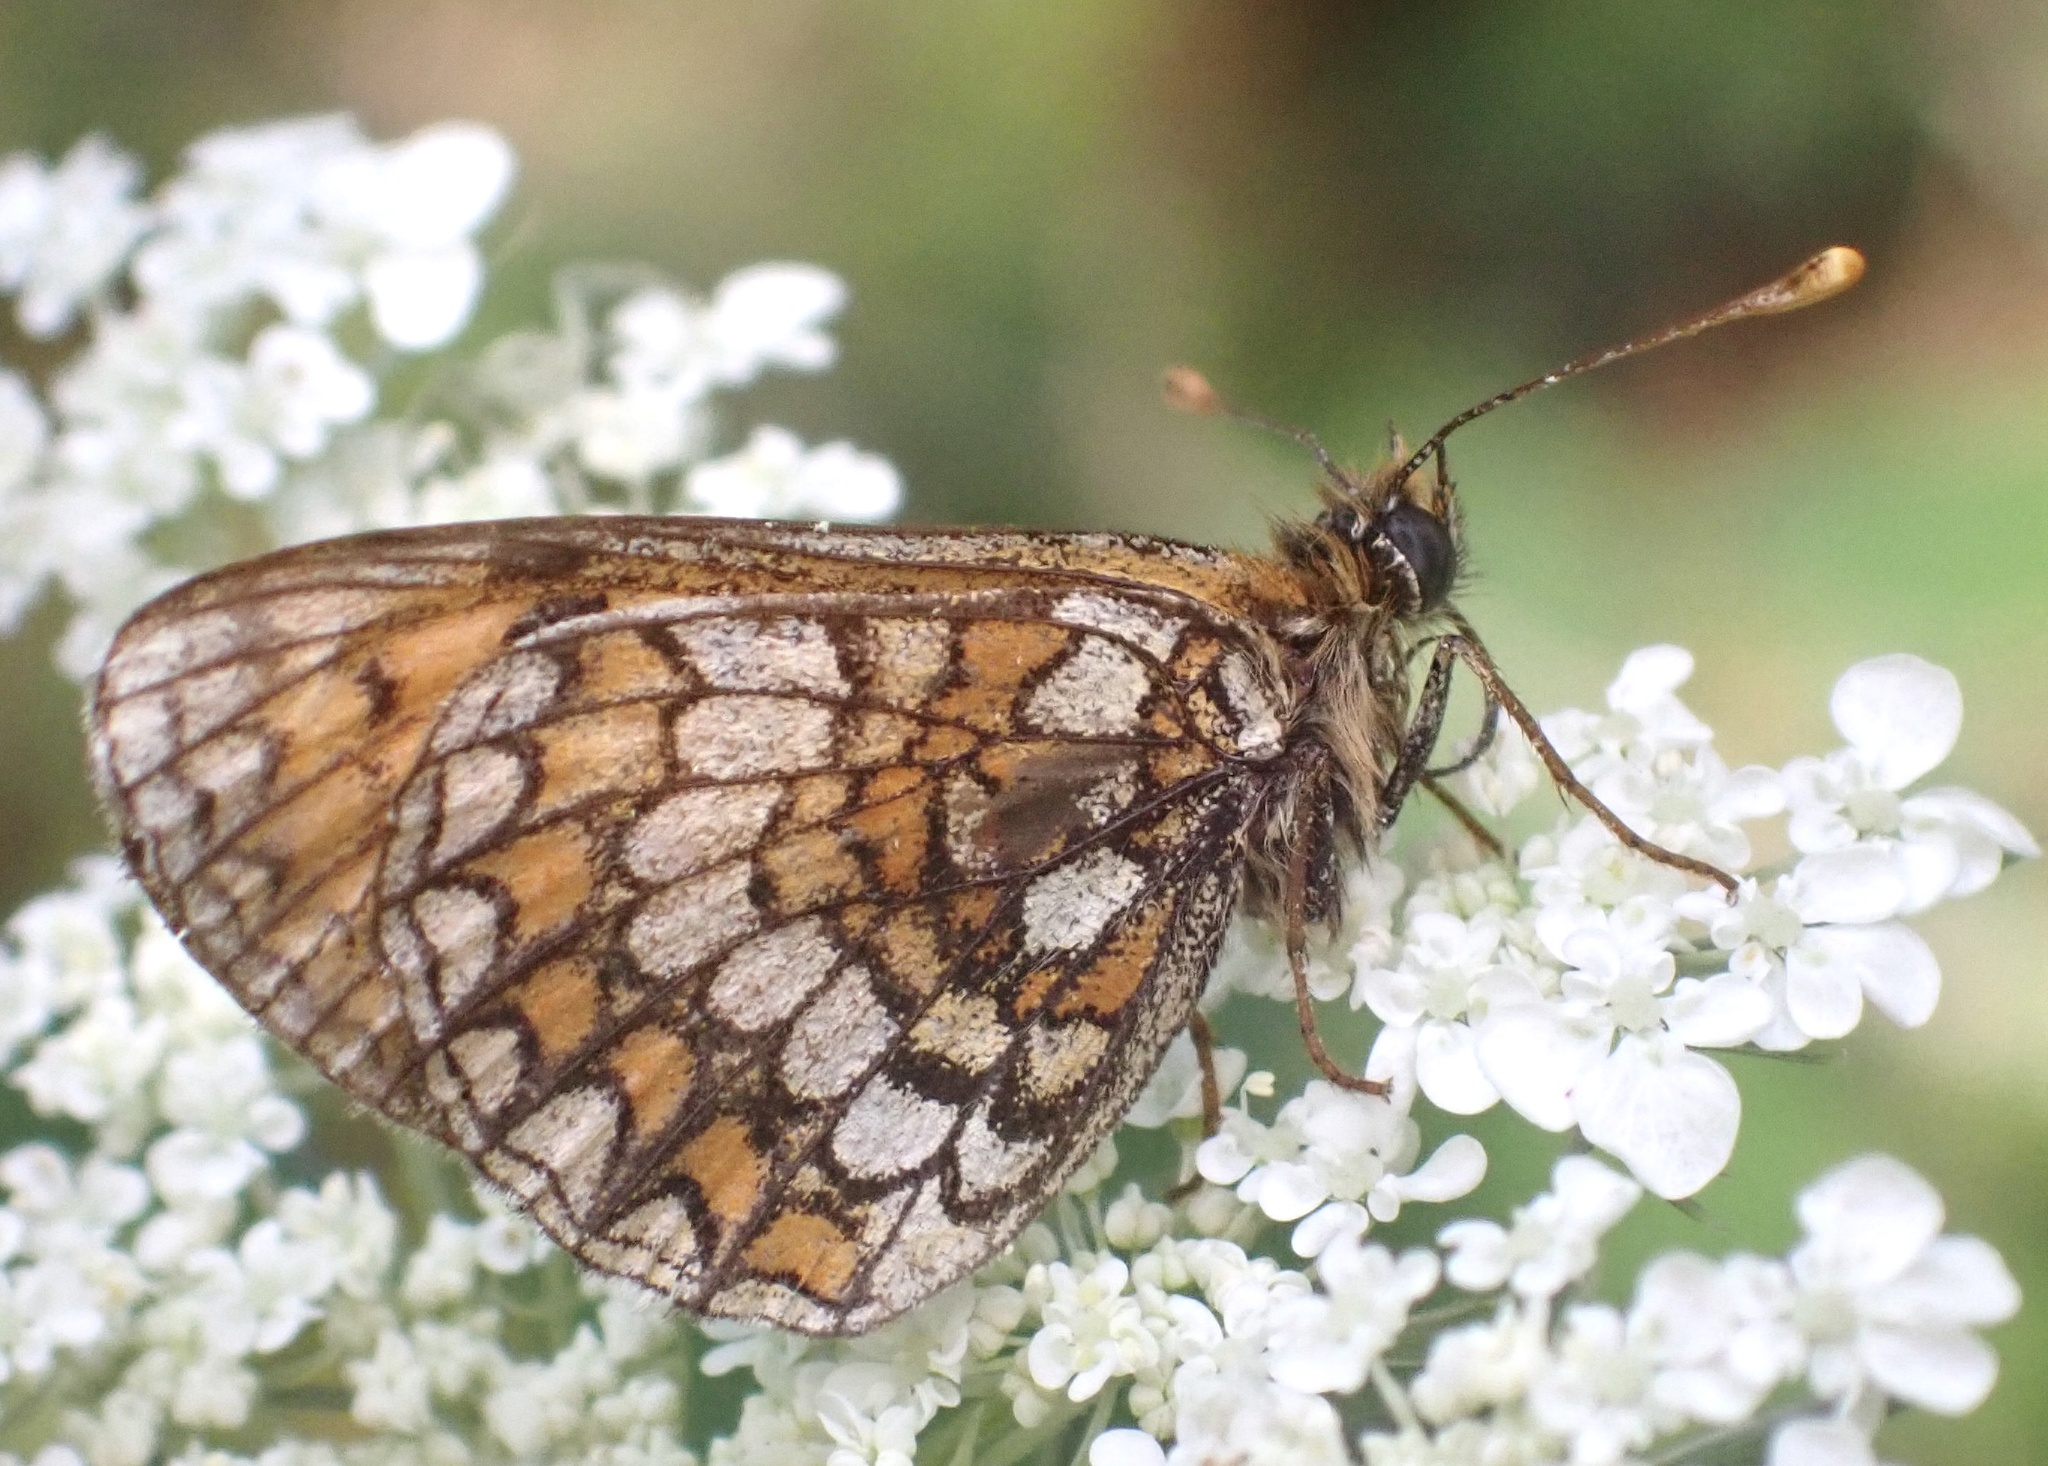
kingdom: Animalia
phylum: Arthropoda
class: Insecta
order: Lepidoptera
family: Nymphalidae
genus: Mellicta
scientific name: Mellicta parthenoides
